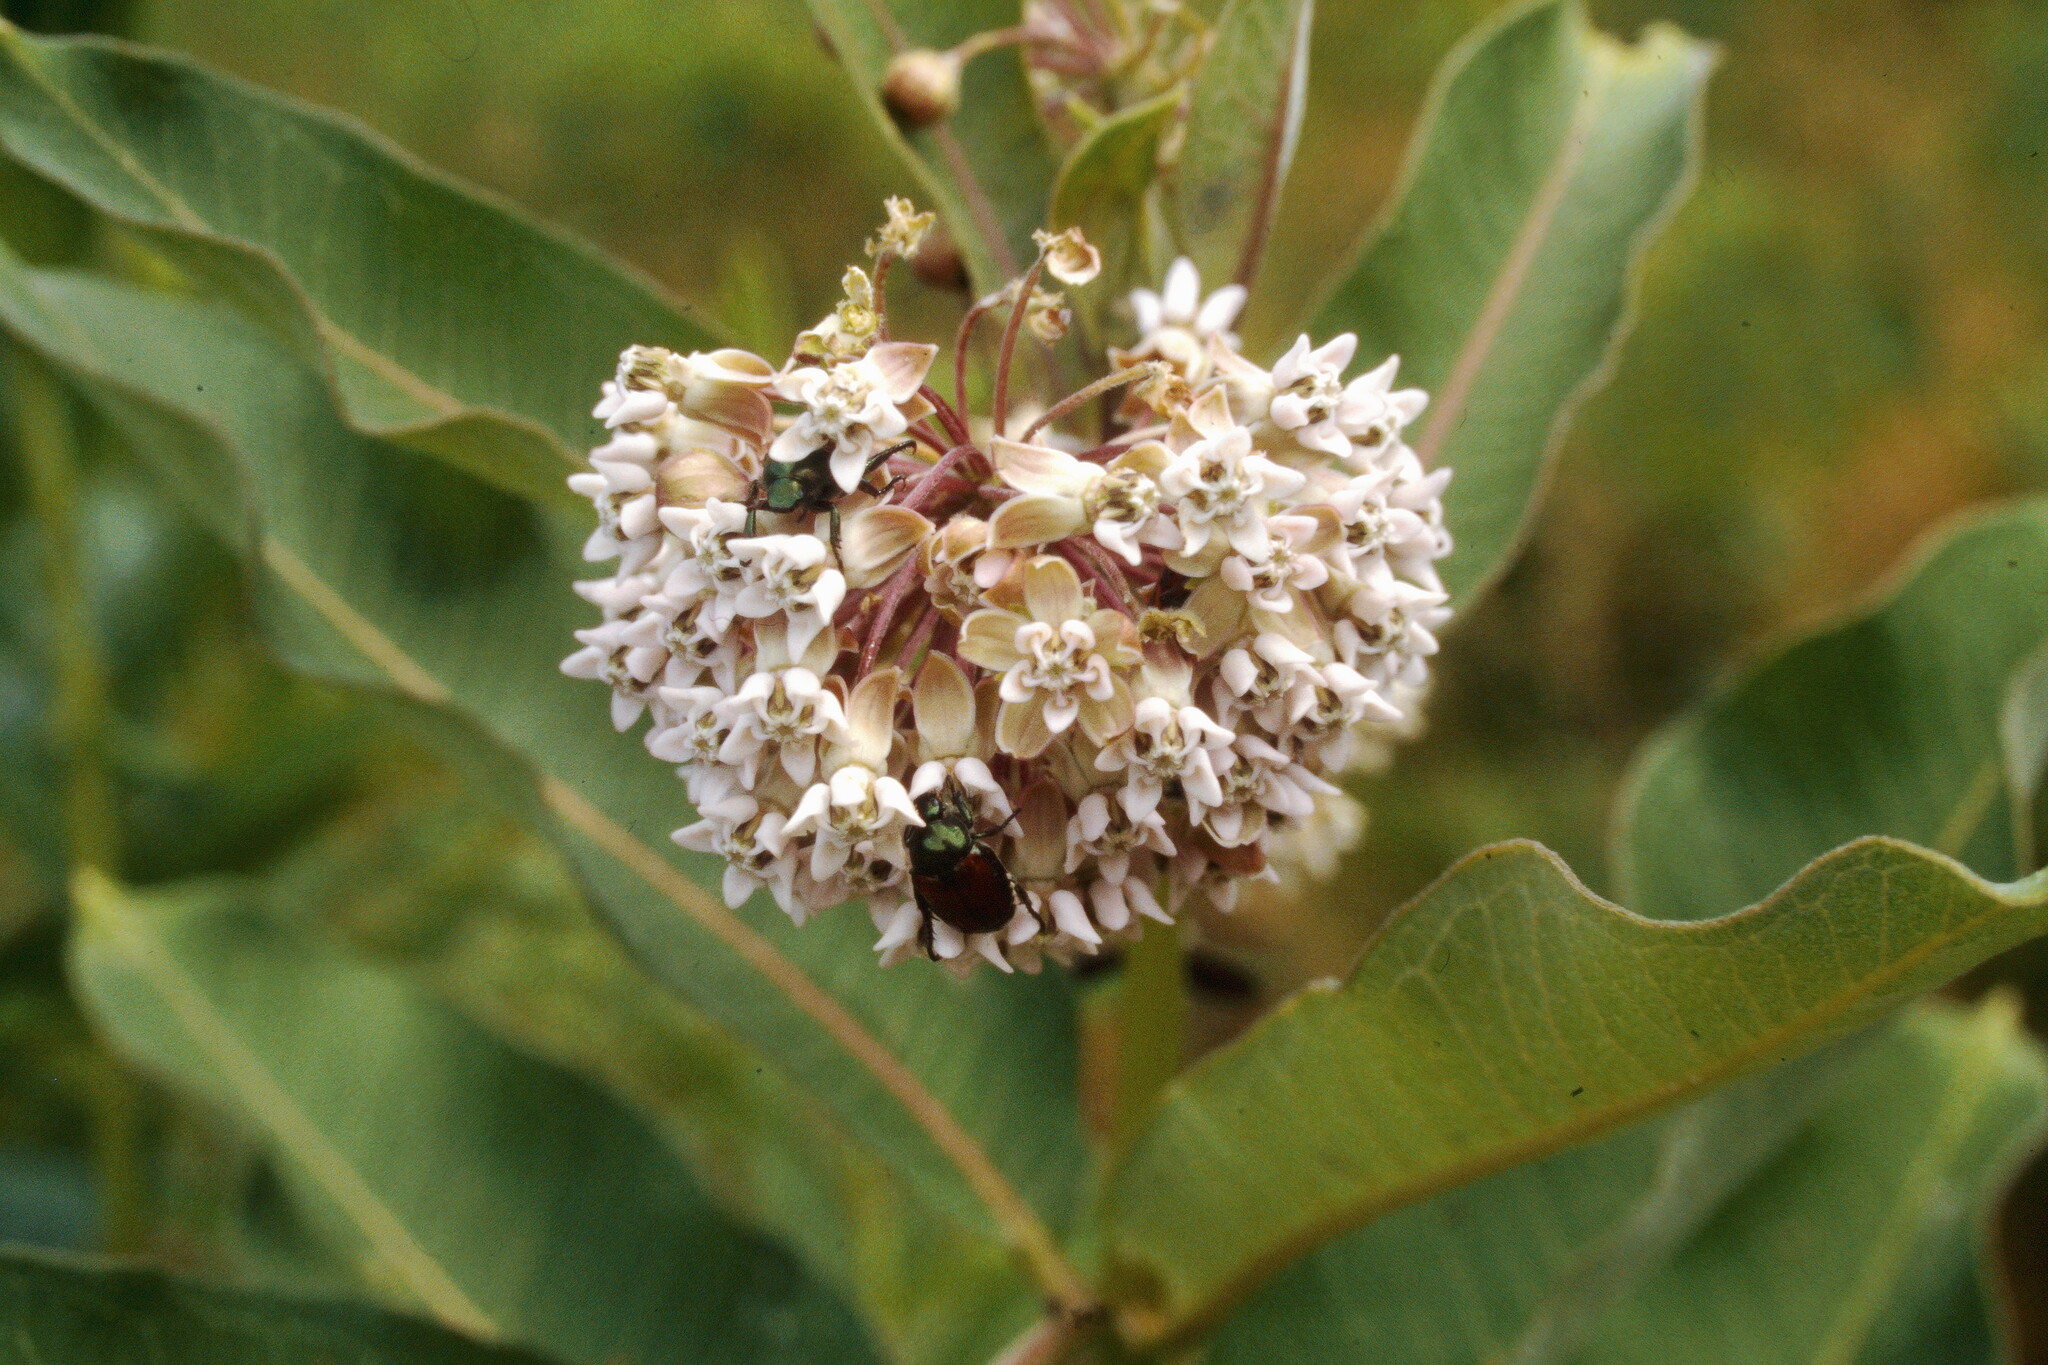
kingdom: Plantae
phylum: Tracheophyta
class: Magnoliopsida
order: Gentianales
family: Apocynaceae
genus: Asclepias
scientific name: Asclepias syriaca
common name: Common milkweed
